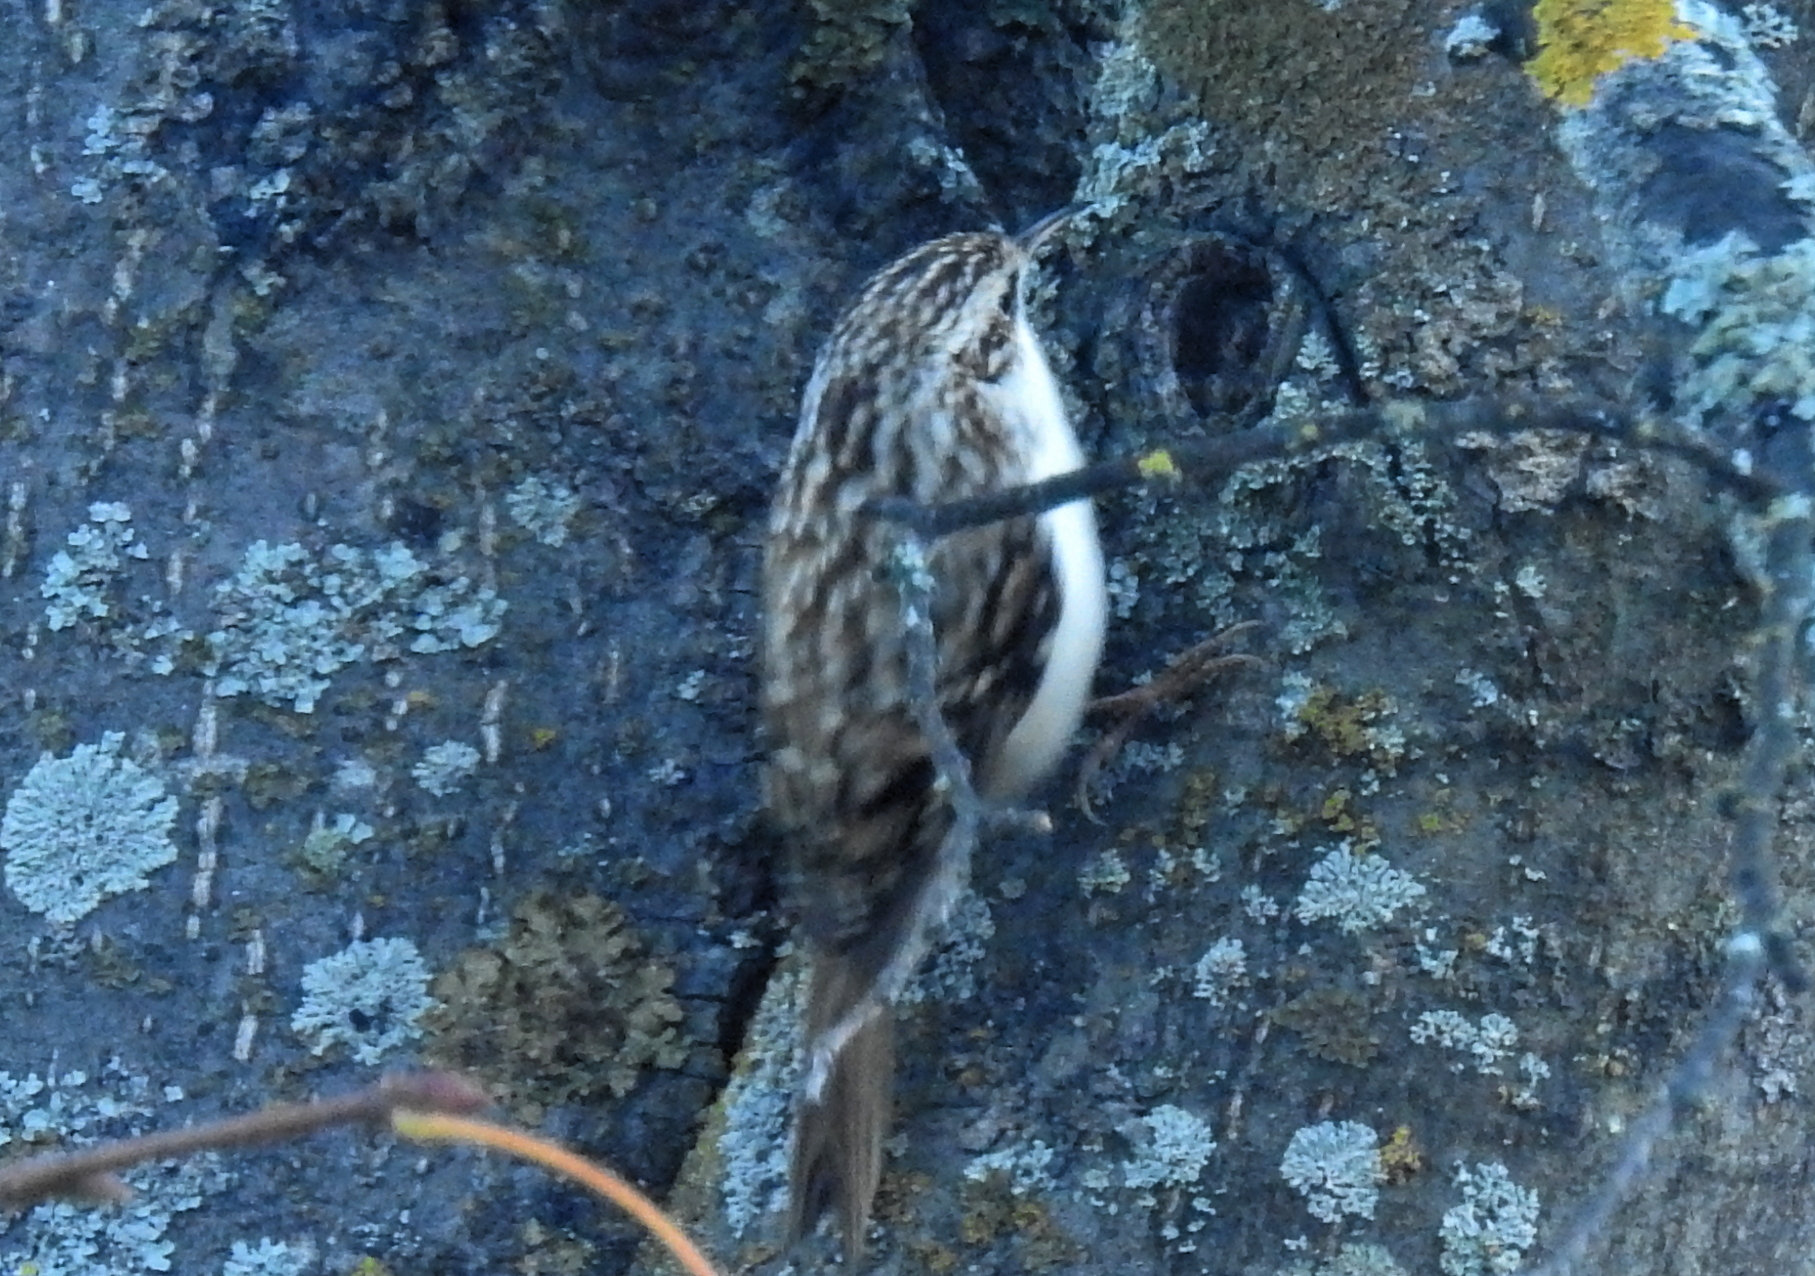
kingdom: Animalia
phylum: Chordata
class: Aves
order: Passeriformes
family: Certhiidae
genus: Certhia
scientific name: Certhia familiaris
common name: Eurasian treecreeper
